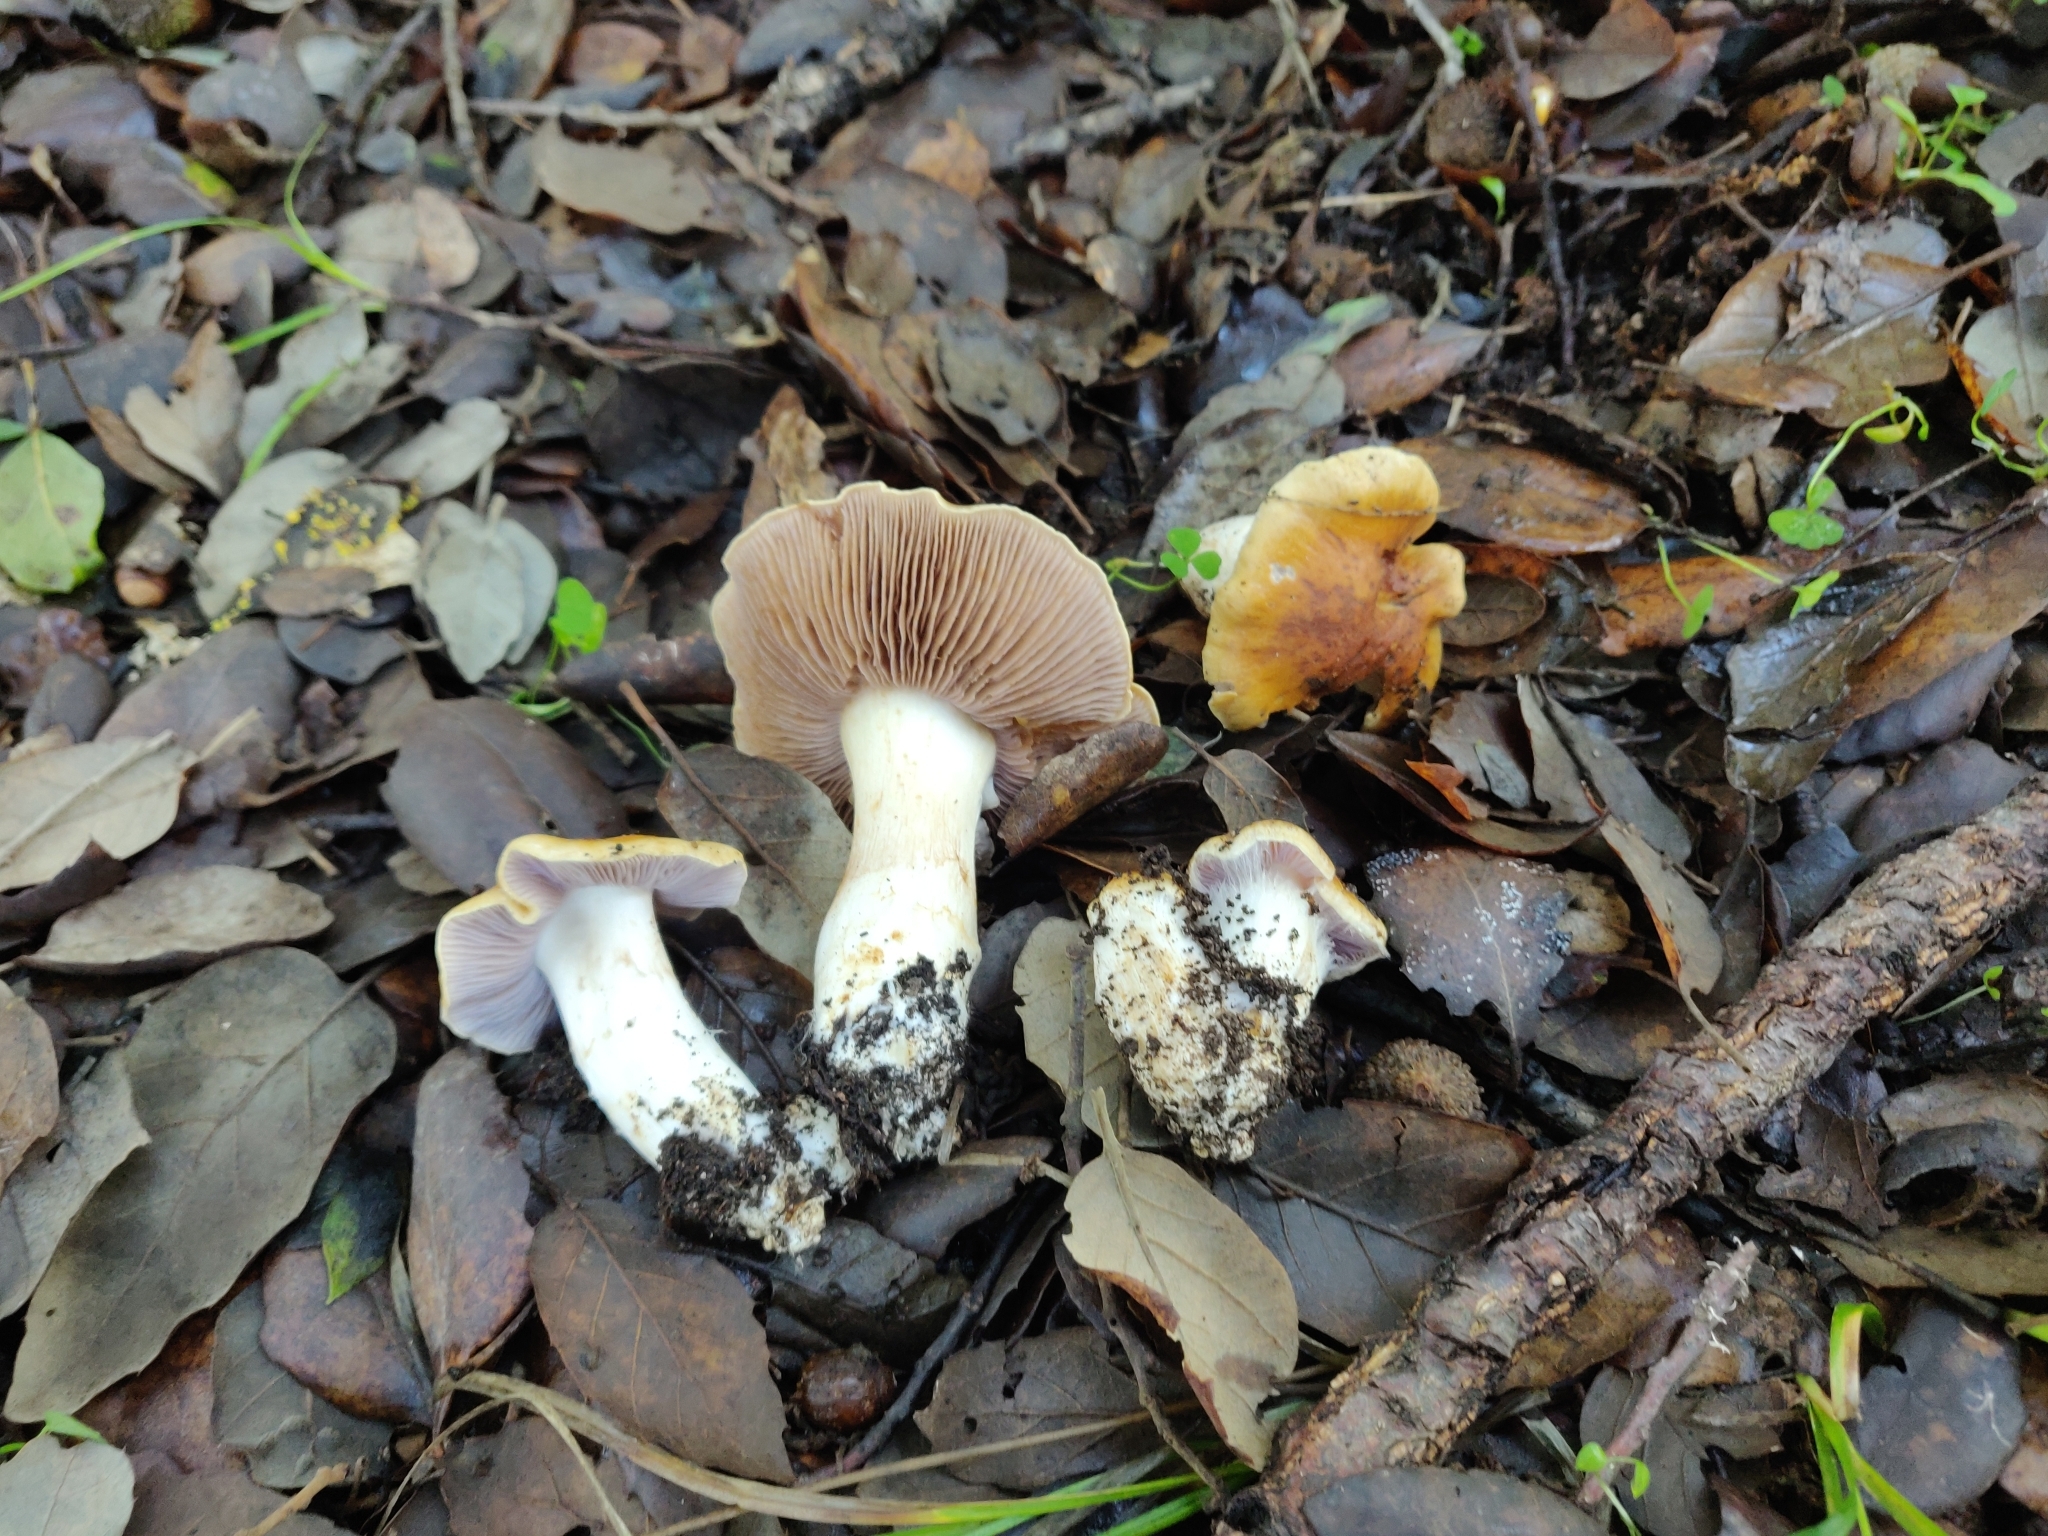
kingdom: Fungi
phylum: Basidiomycota
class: Agaricomycetes
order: Agaricales
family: Cortinariaceae
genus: Phlegmacium
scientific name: Phlegmacium luteocingulatum
